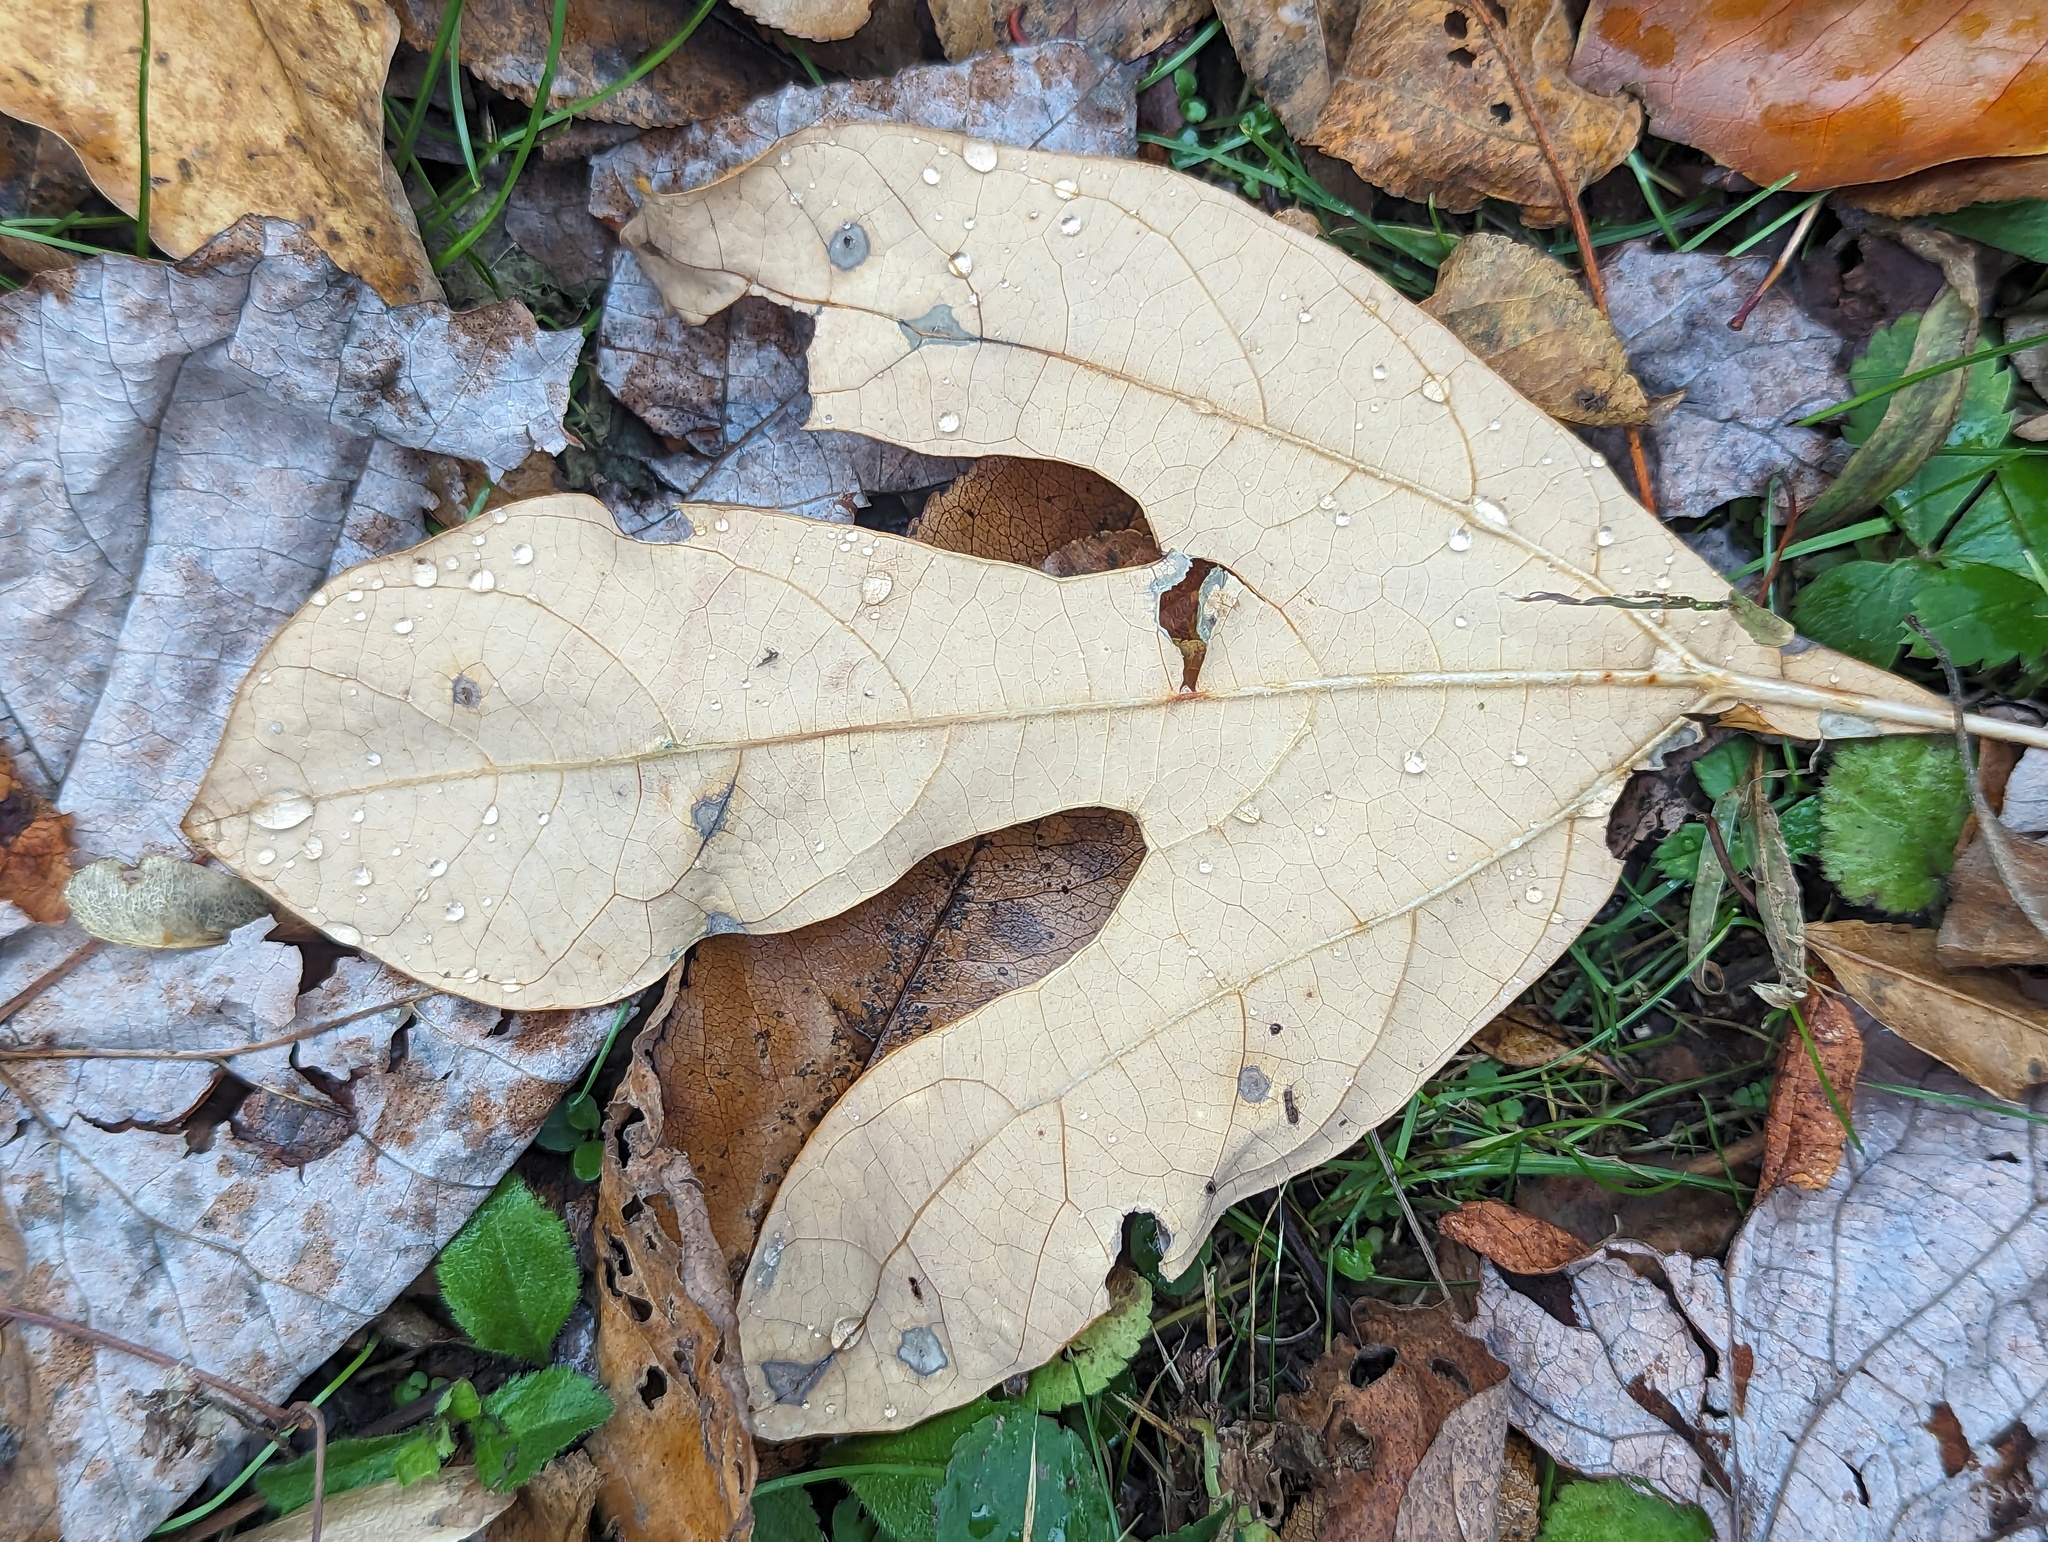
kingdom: Plantae
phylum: Tracheophyta
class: Magnoliopsida
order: Laurales
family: Lauraceae
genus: Sassafras
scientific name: Sassafras albidum
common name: Sassafras
